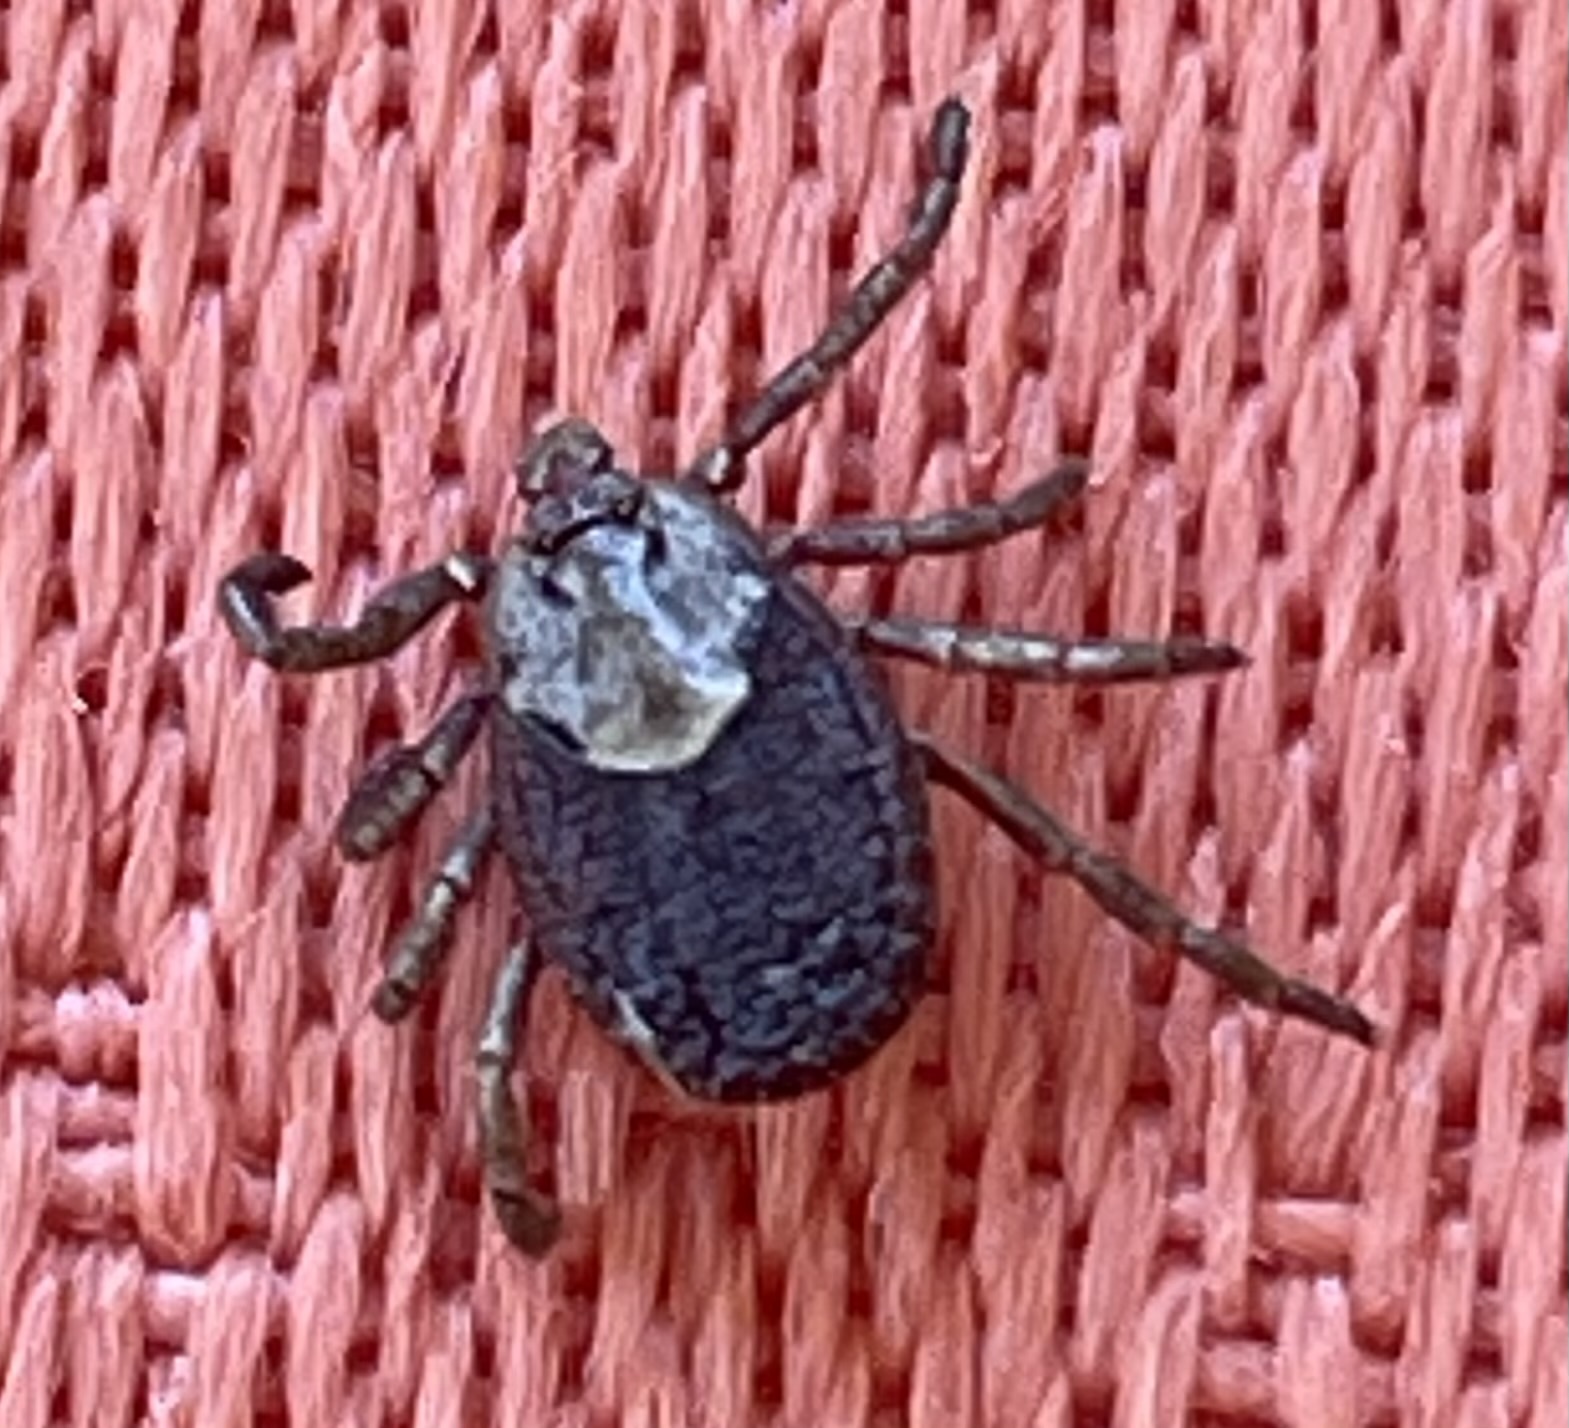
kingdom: Animalia
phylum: Arthropoda
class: Arachnida
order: Ixodida
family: Ixodidae
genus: Dermacentor
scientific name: Dermacentor occidentalis
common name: Net tick
